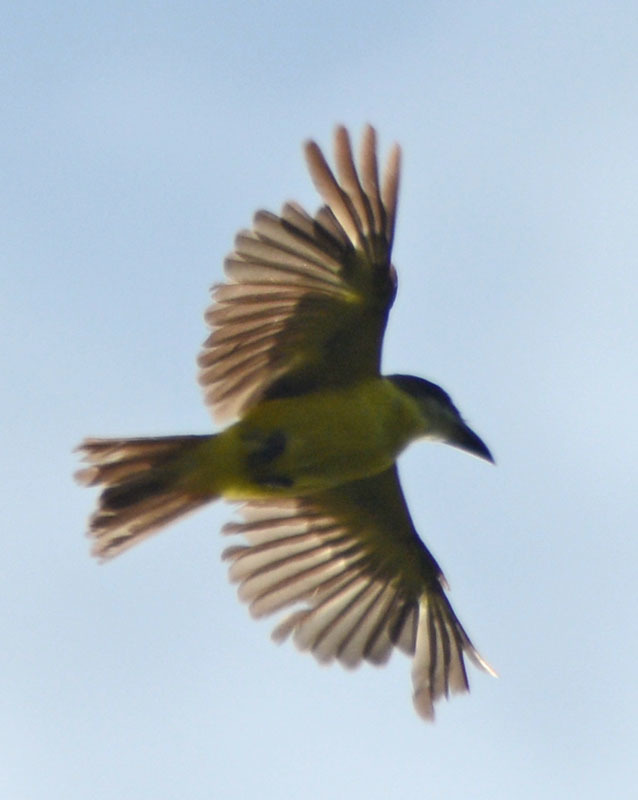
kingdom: Animalia
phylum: Chordata
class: Aves
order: Passeriformes
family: Tyrannidae
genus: Megarynchus
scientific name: Megarynchus pitangua
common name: Boat-billed flycatcher
